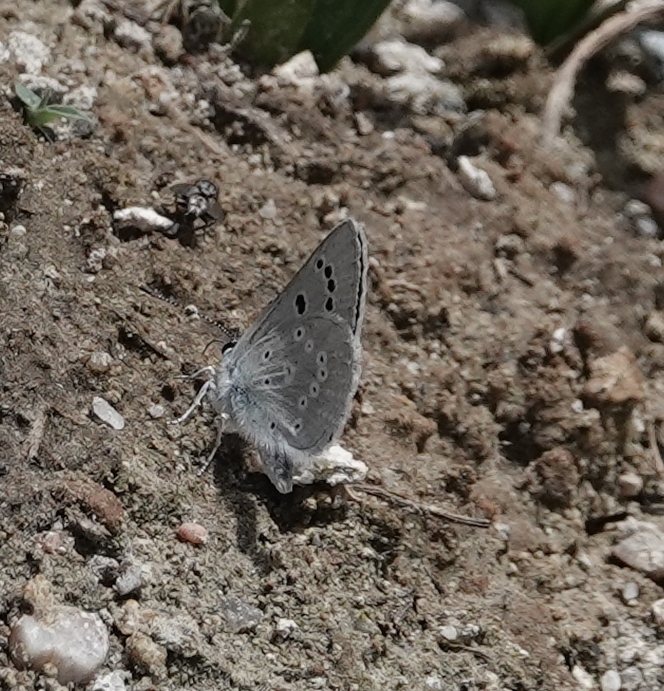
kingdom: Animalia
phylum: Arthropoda
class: Insecta
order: Lepidoptera
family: Lycaenidae
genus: Icaricia
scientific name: Icaricia icarioides
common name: Boisduval's blue
